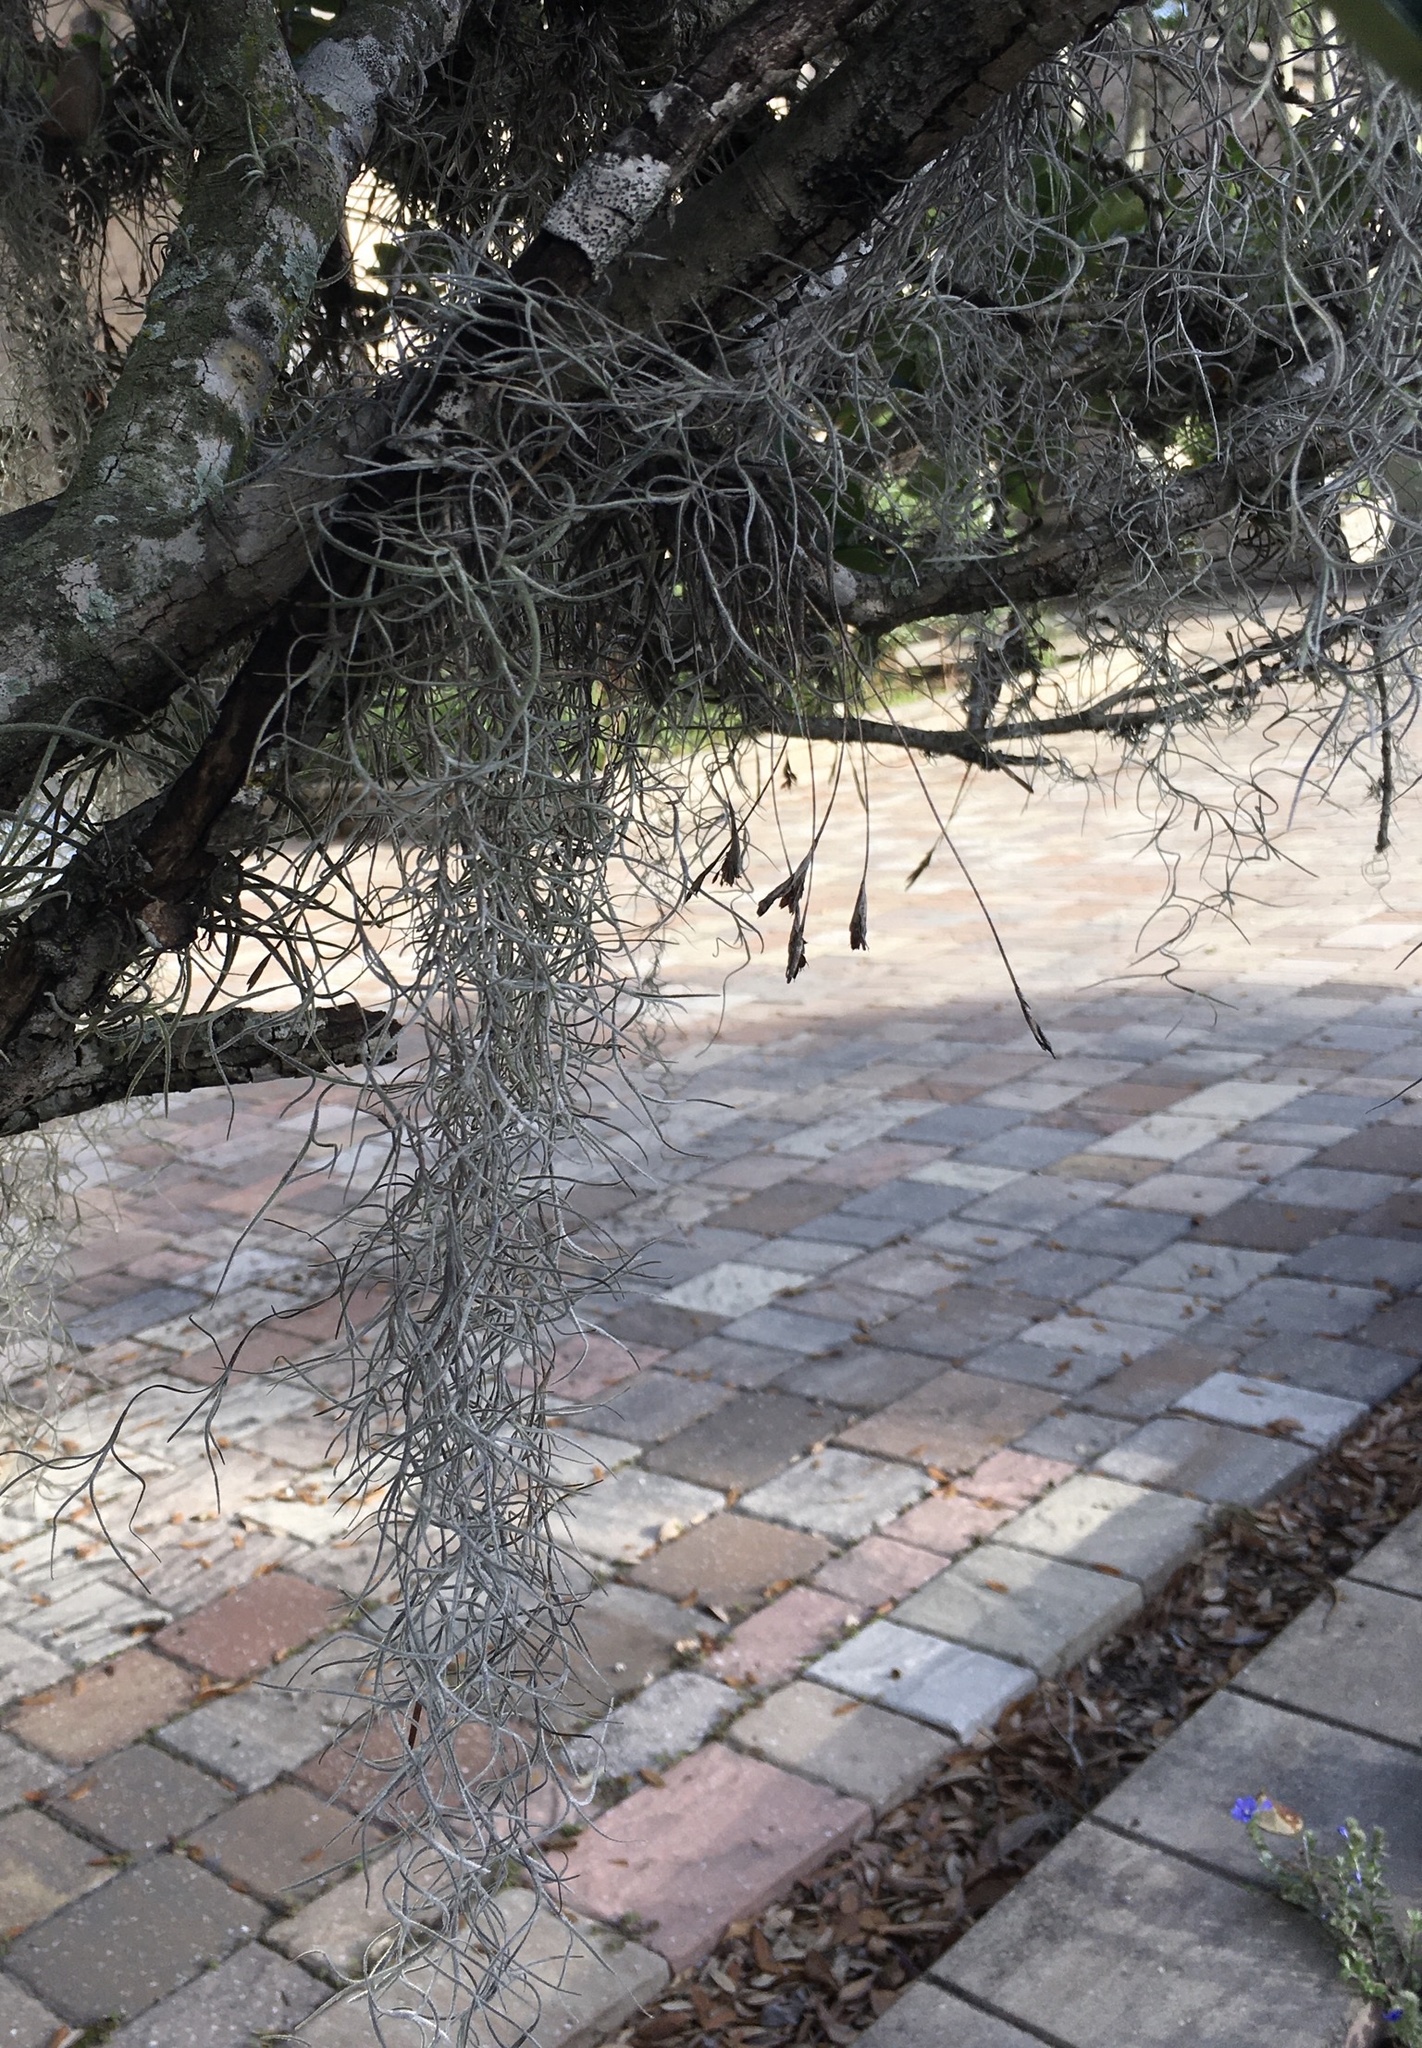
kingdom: Plantae
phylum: Tracheophyta
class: Liliopsida
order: Poales
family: Bromeliaceae
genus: Tillandsia
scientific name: Tillandsia usneoides
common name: Spanish moss
